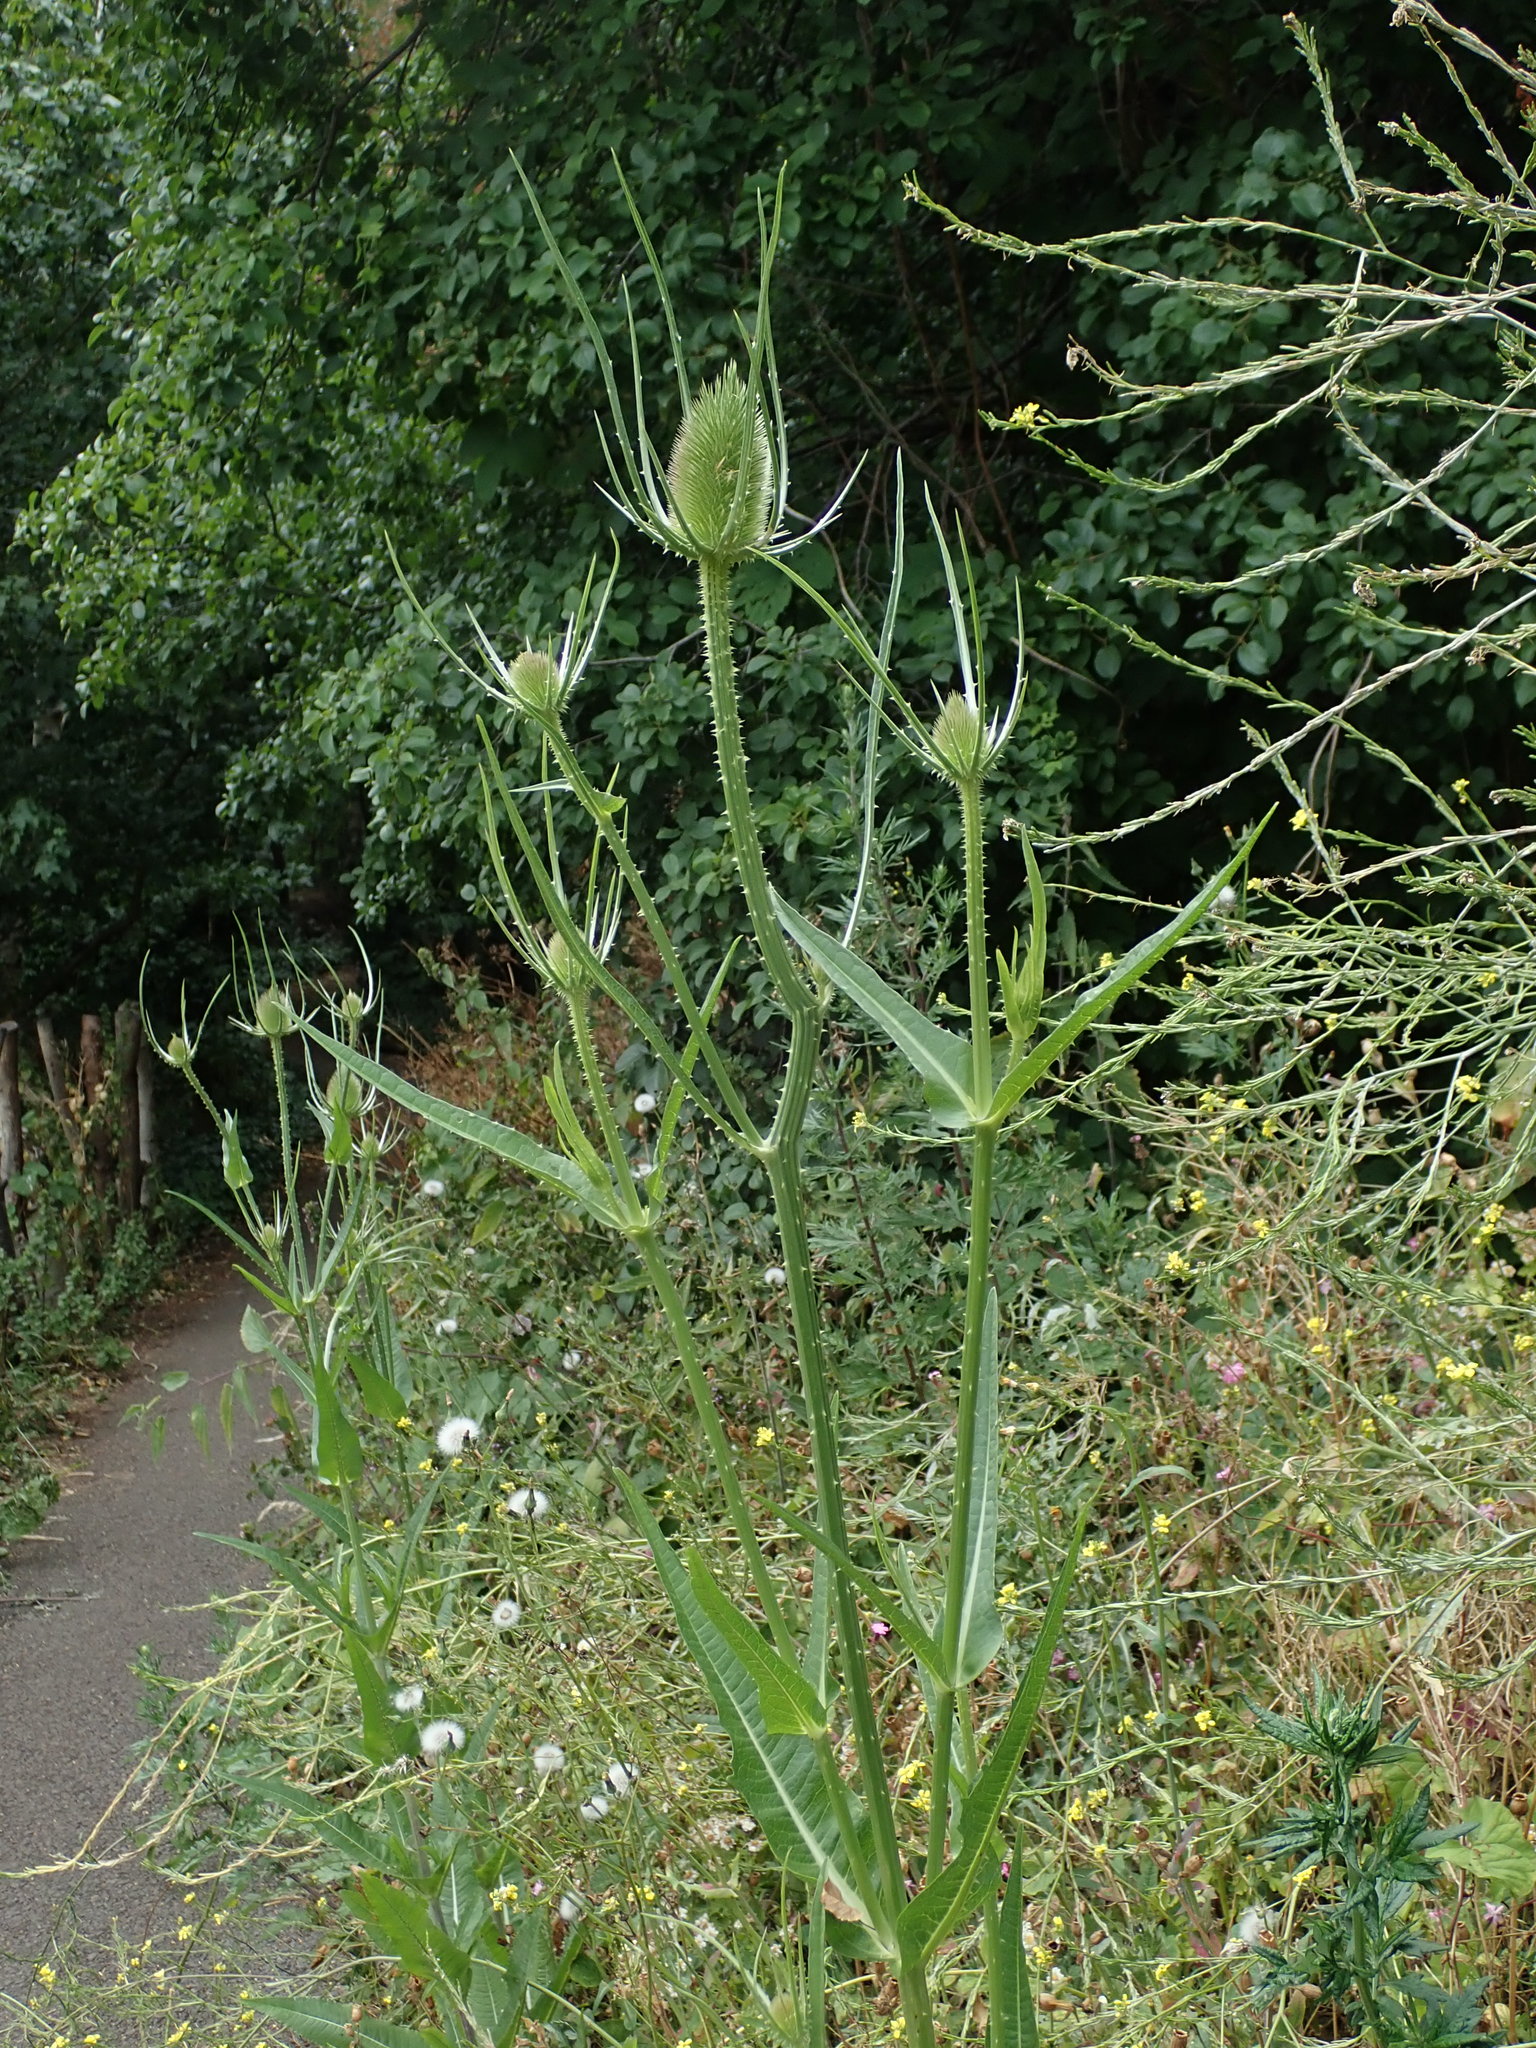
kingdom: Plantae
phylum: Tracheophyta
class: Magnoliopsida
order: Dipsacales
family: Caprifoliaceae
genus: Dipsacus
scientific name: Dipsacus fullonum
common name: Teasel
